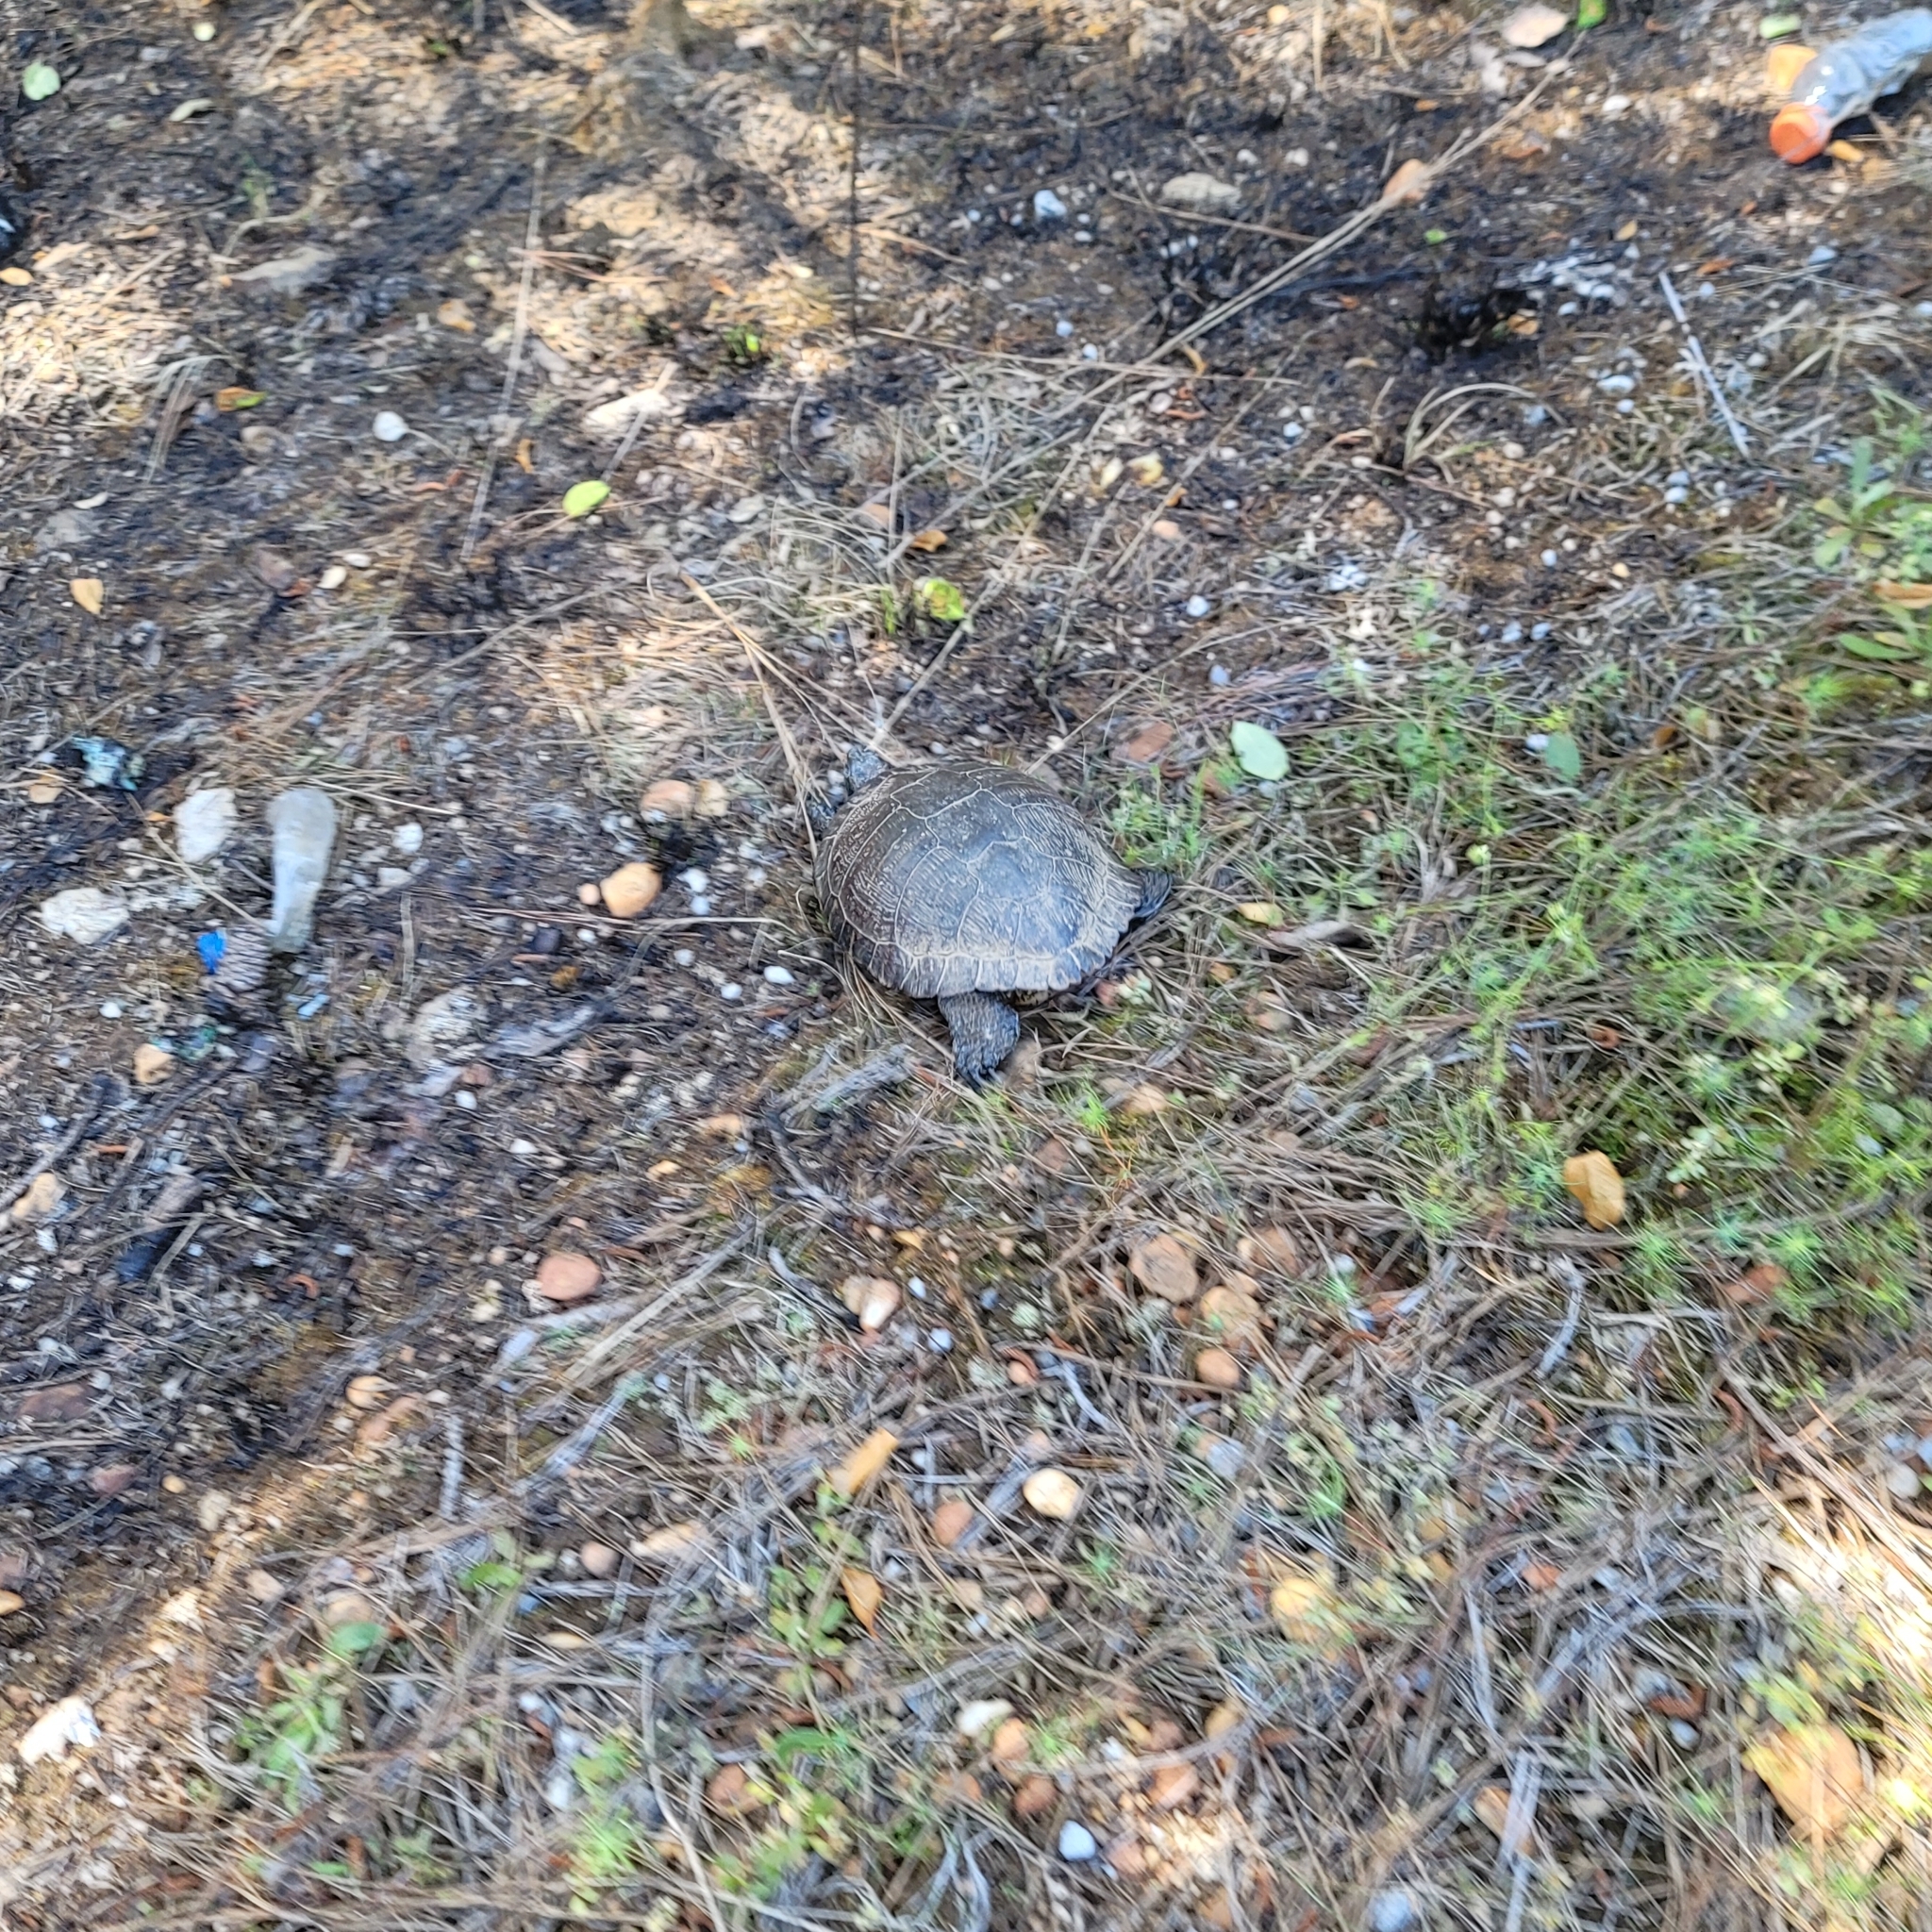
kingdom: Animalia
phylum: Chordata
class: Testudines
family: Emydidae
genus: Trachemys
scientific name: Trachemys scripta
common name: Slider
